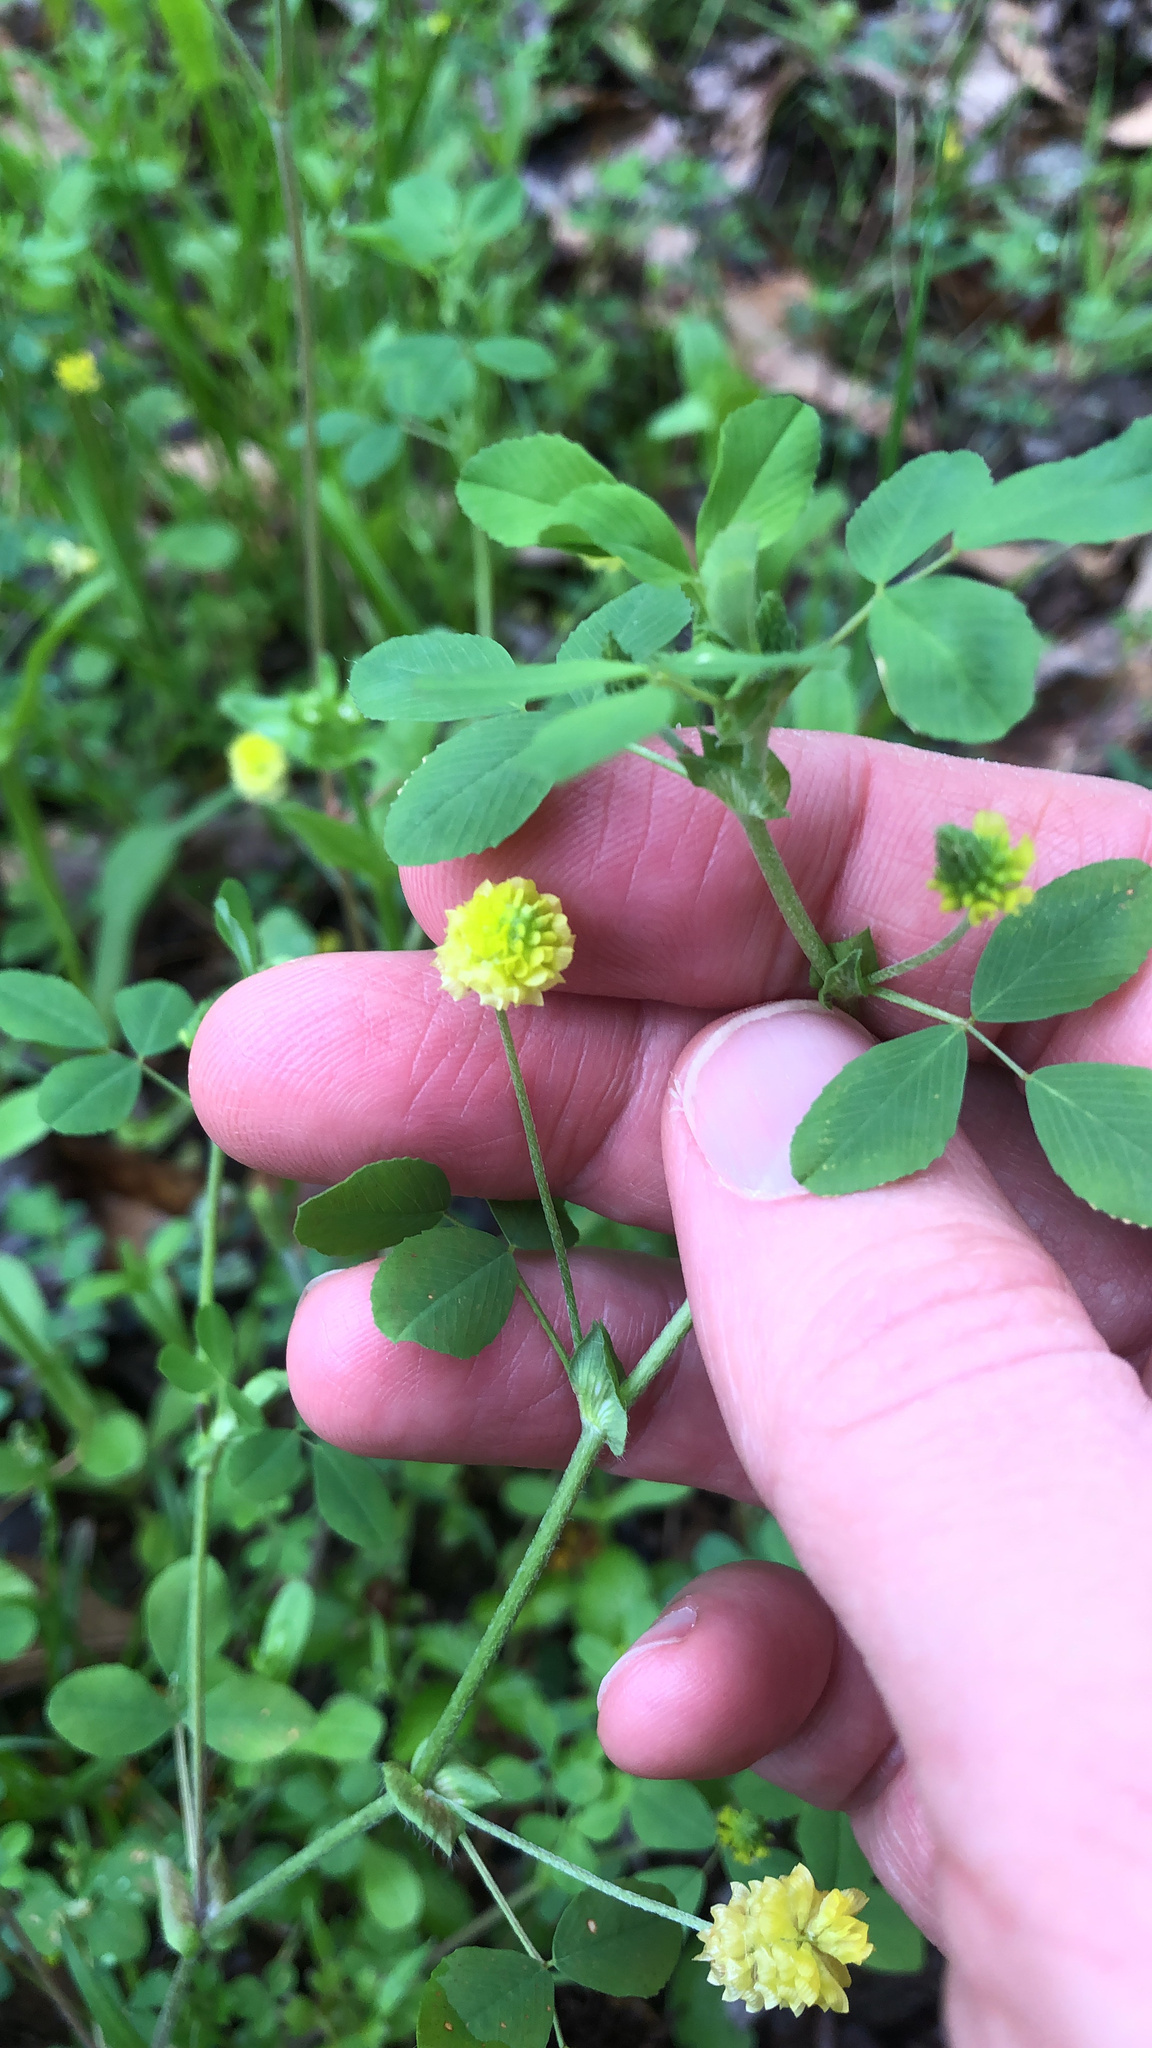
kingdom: Plantae
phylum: Tracheophyta
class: Magnoliopsida
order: Fabales
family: Fabaceae
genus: Trifolium
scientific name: Trifolium campestre
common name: Field clover
